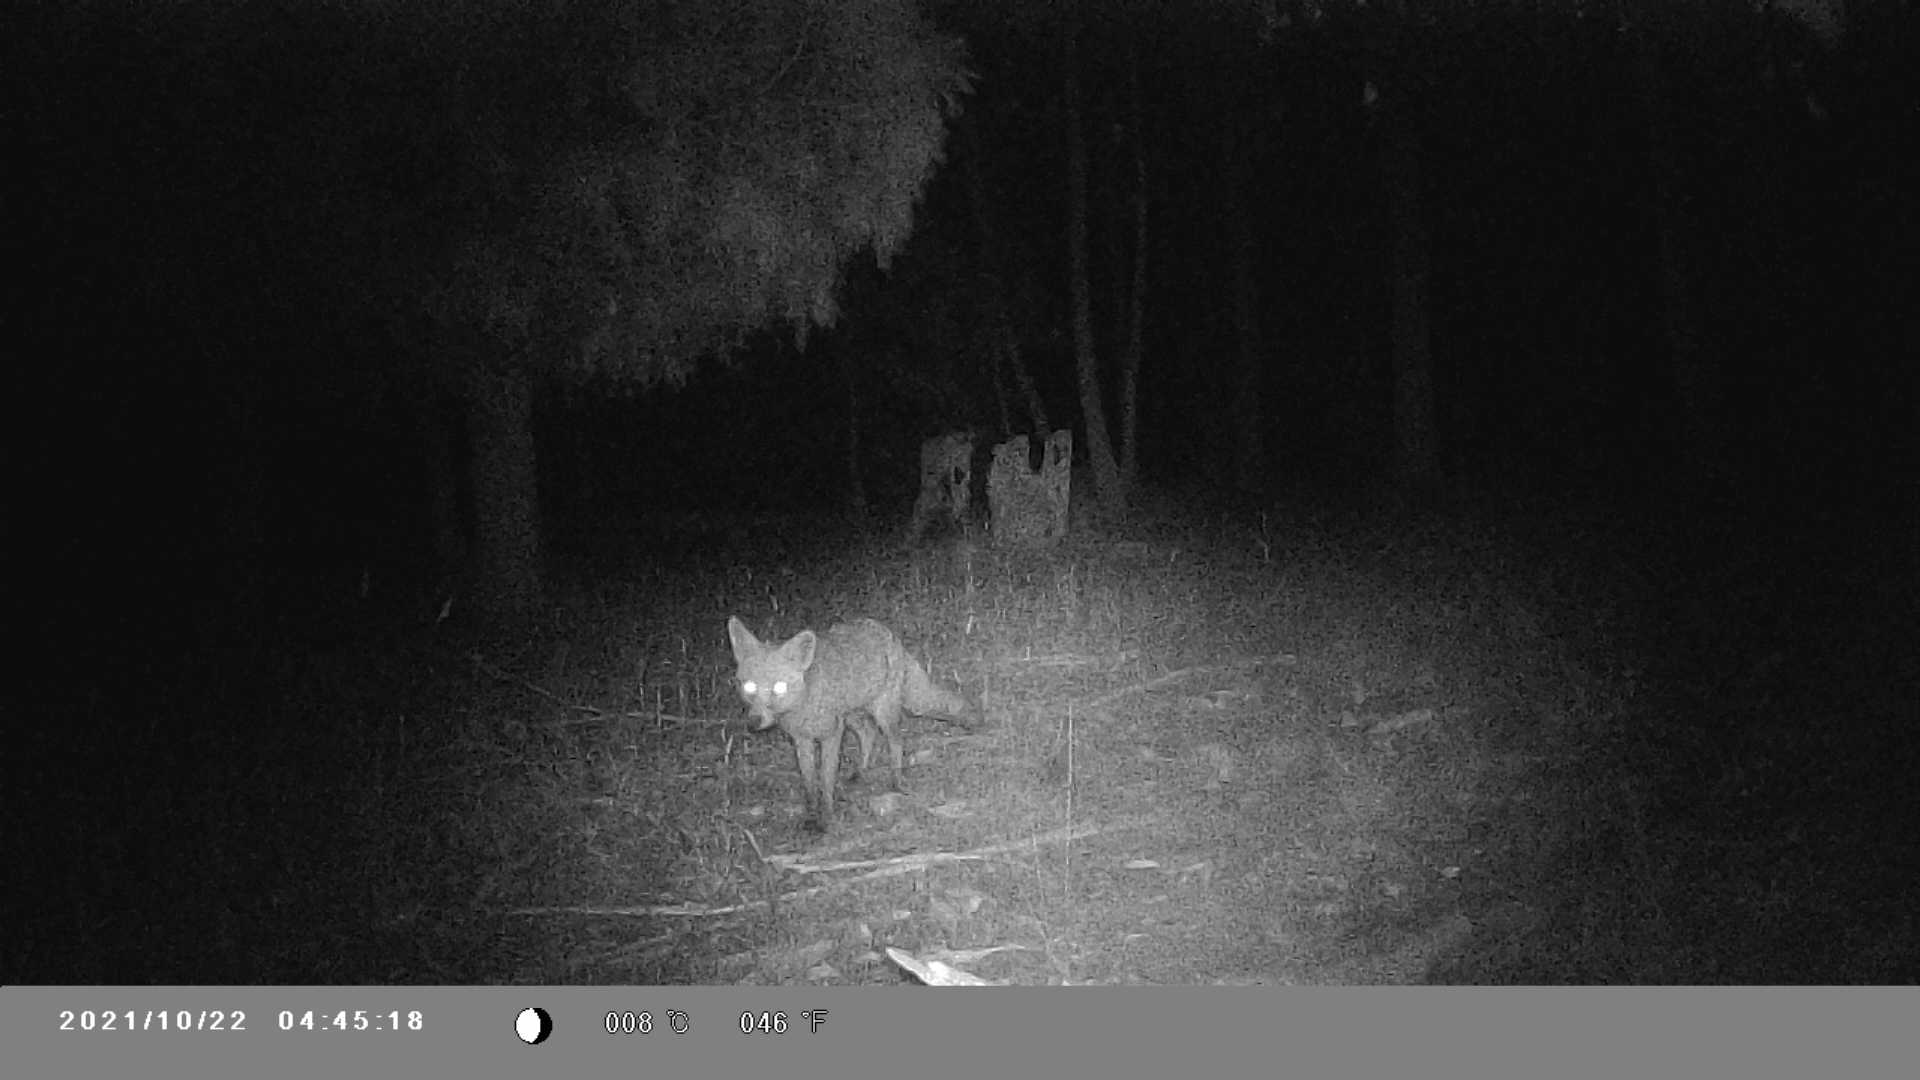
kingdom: Animalia
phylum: Chordata
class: Mammalia
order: Carnivora
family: Canidae
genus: Vulpes
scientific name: Vulpes vulpes
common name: Red fox
